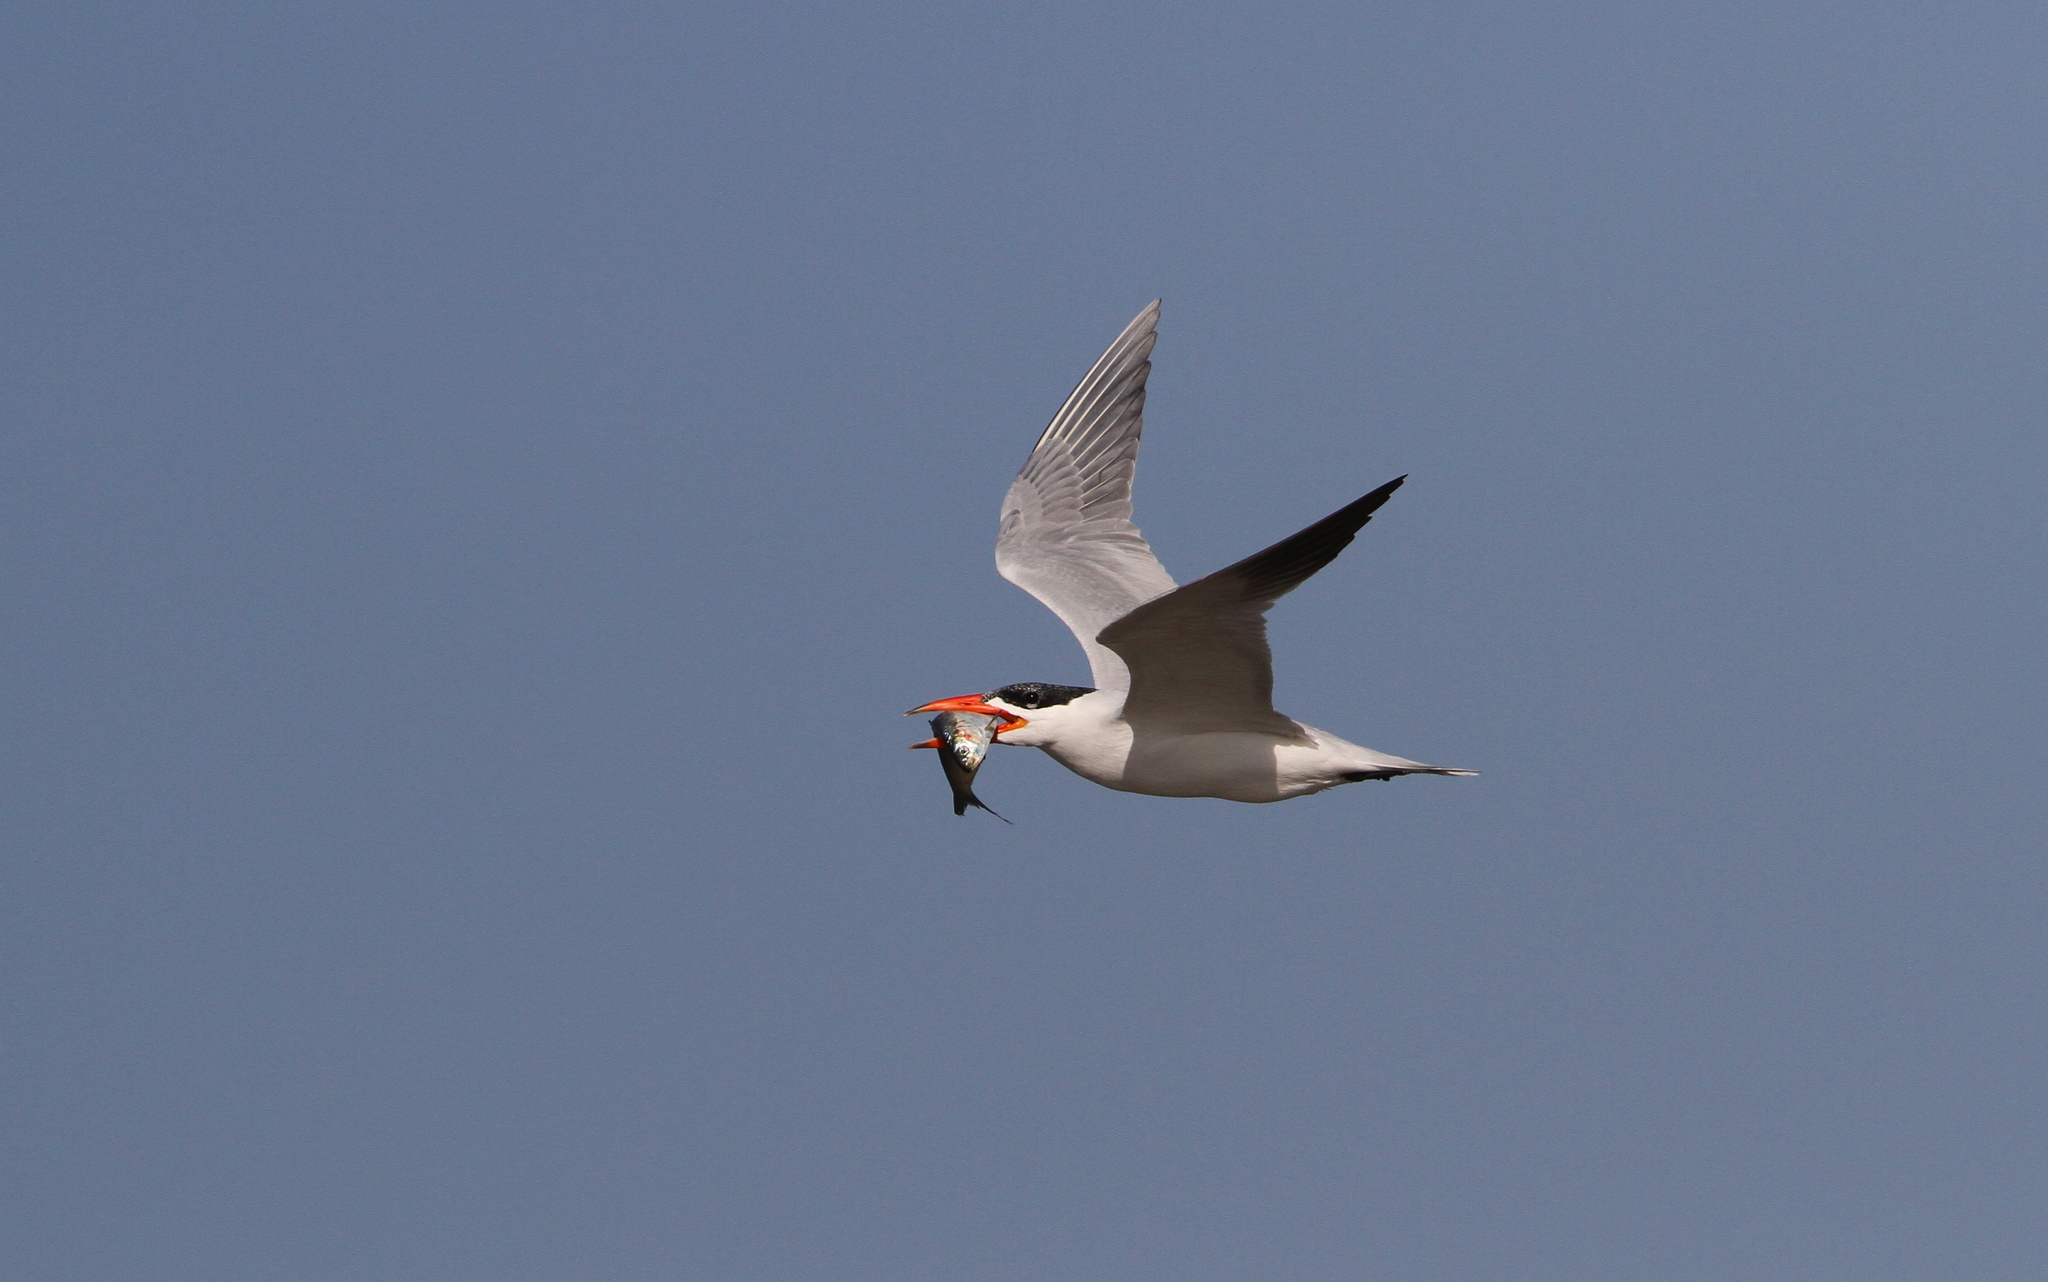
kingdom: Animalia
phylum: Chordata
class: Aves
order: Charadriiformes
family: Laridae
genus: Hydroprogne
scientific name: Hydroprogne caspia
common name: Caspian tern
